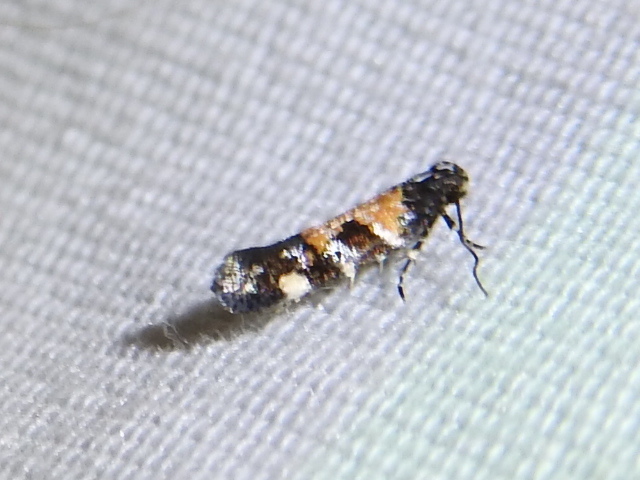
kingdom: Animalia
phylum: Arthropoda
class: Insecta
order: Lepidoptera
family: Gelechiidae
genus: Stegasta
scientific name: Stegasta bosqueella
